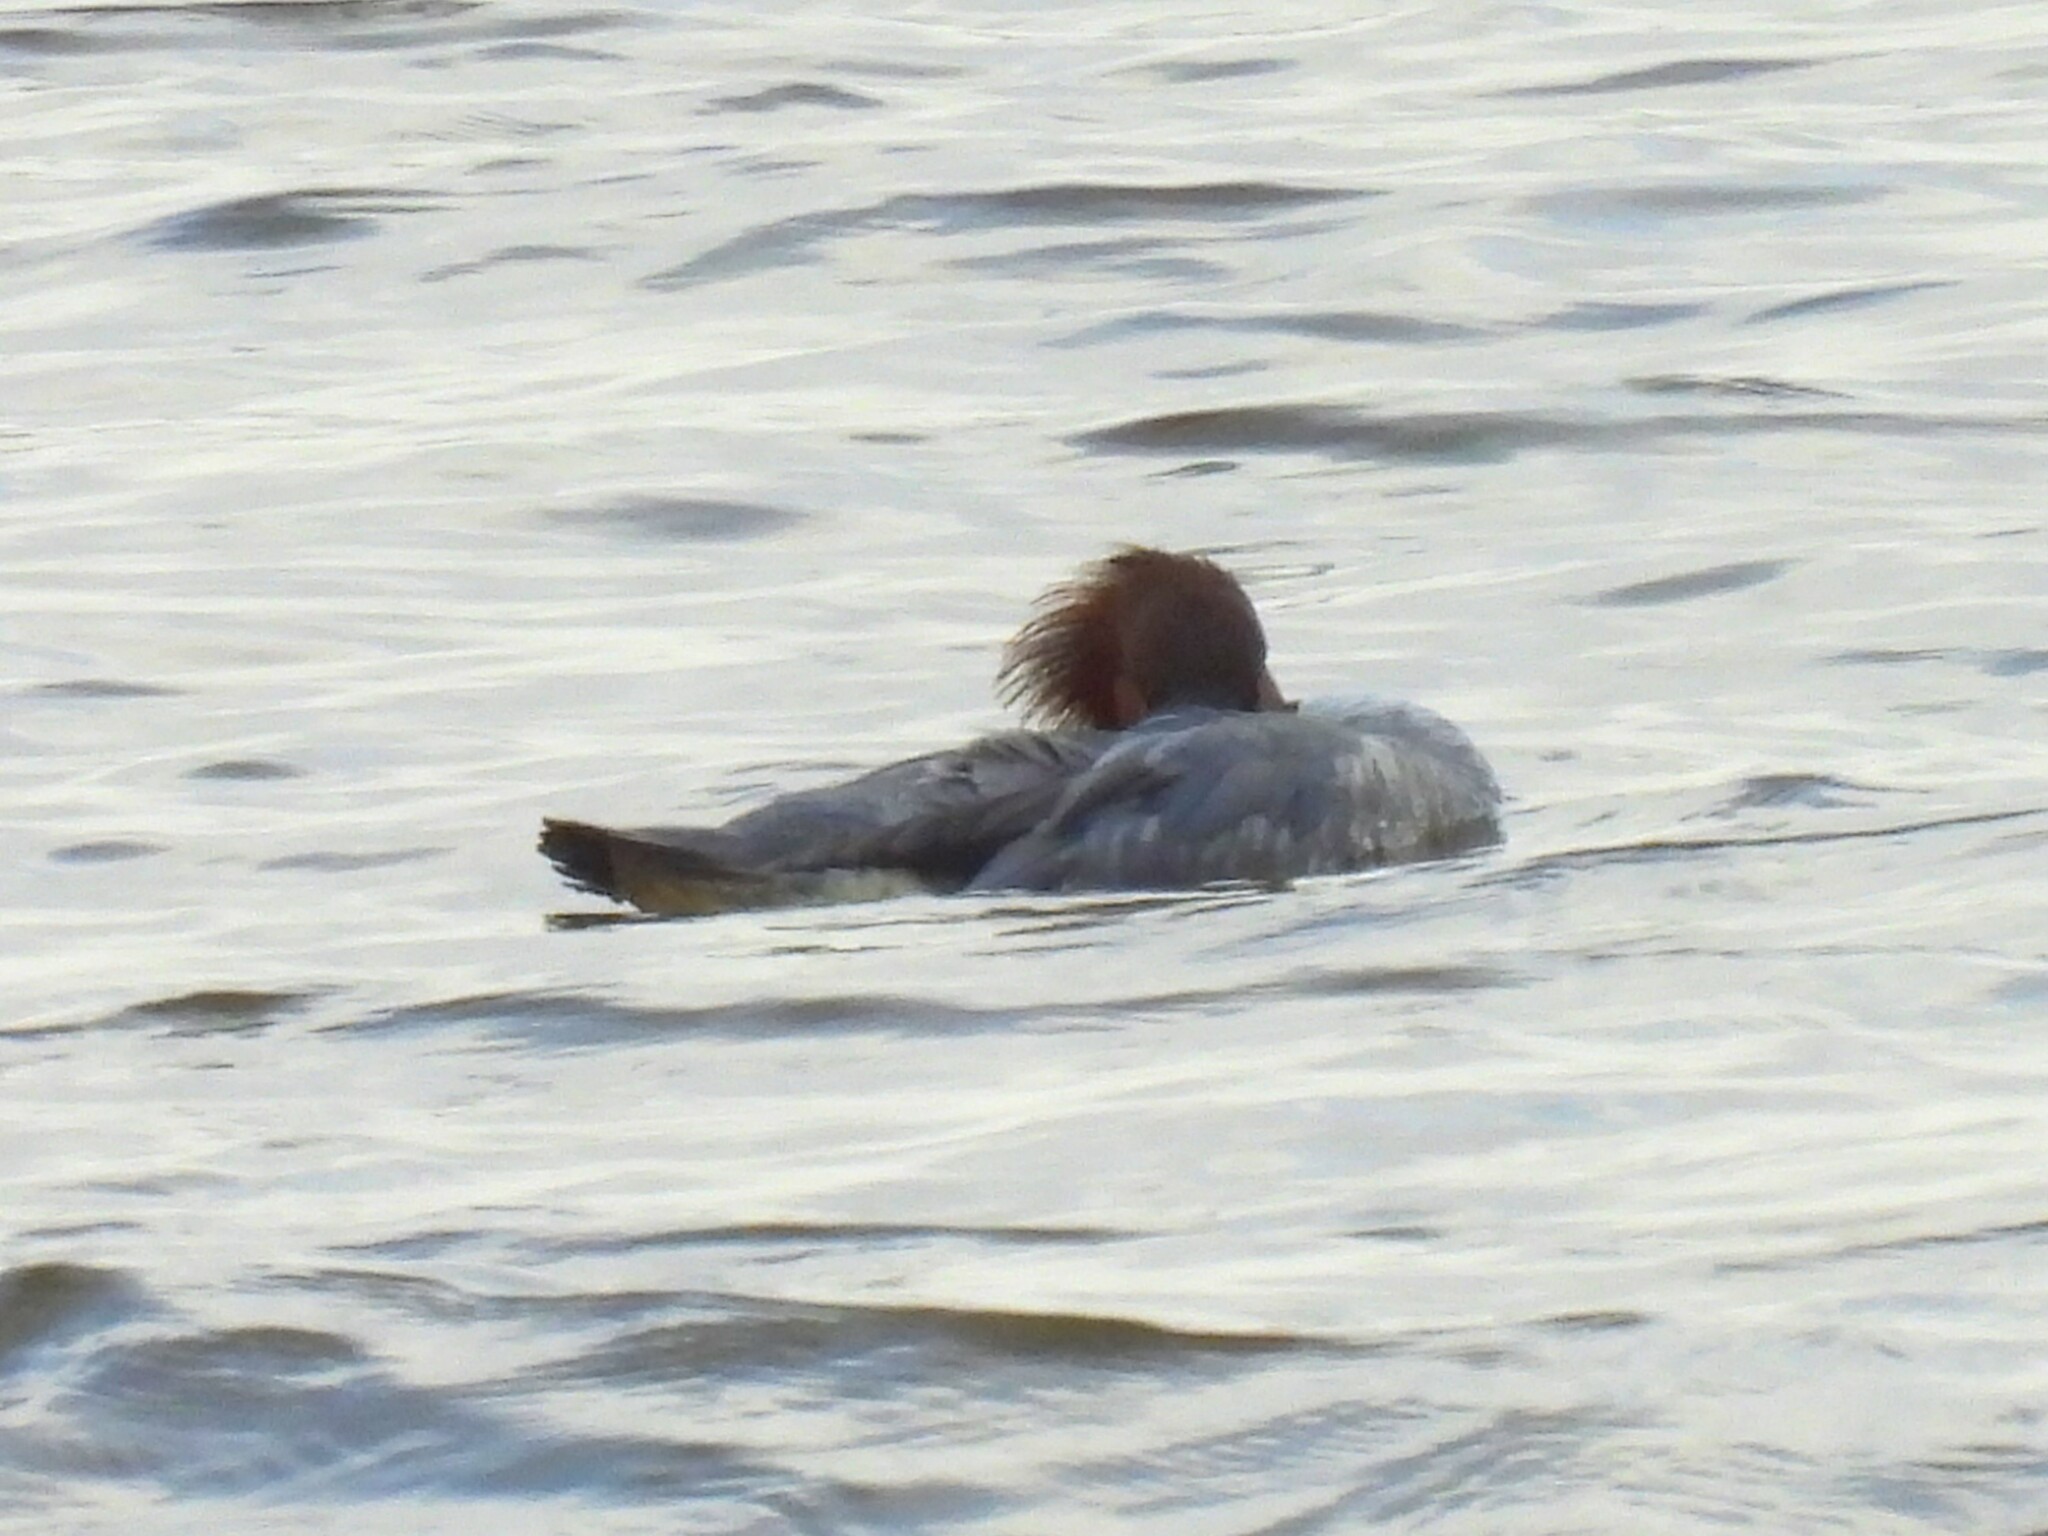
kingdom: Animalia
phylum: Chordata
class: Aves
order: Anseriformes
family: Anatidae
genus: Mergus
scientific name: Mergus merganser
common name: Common merganser
